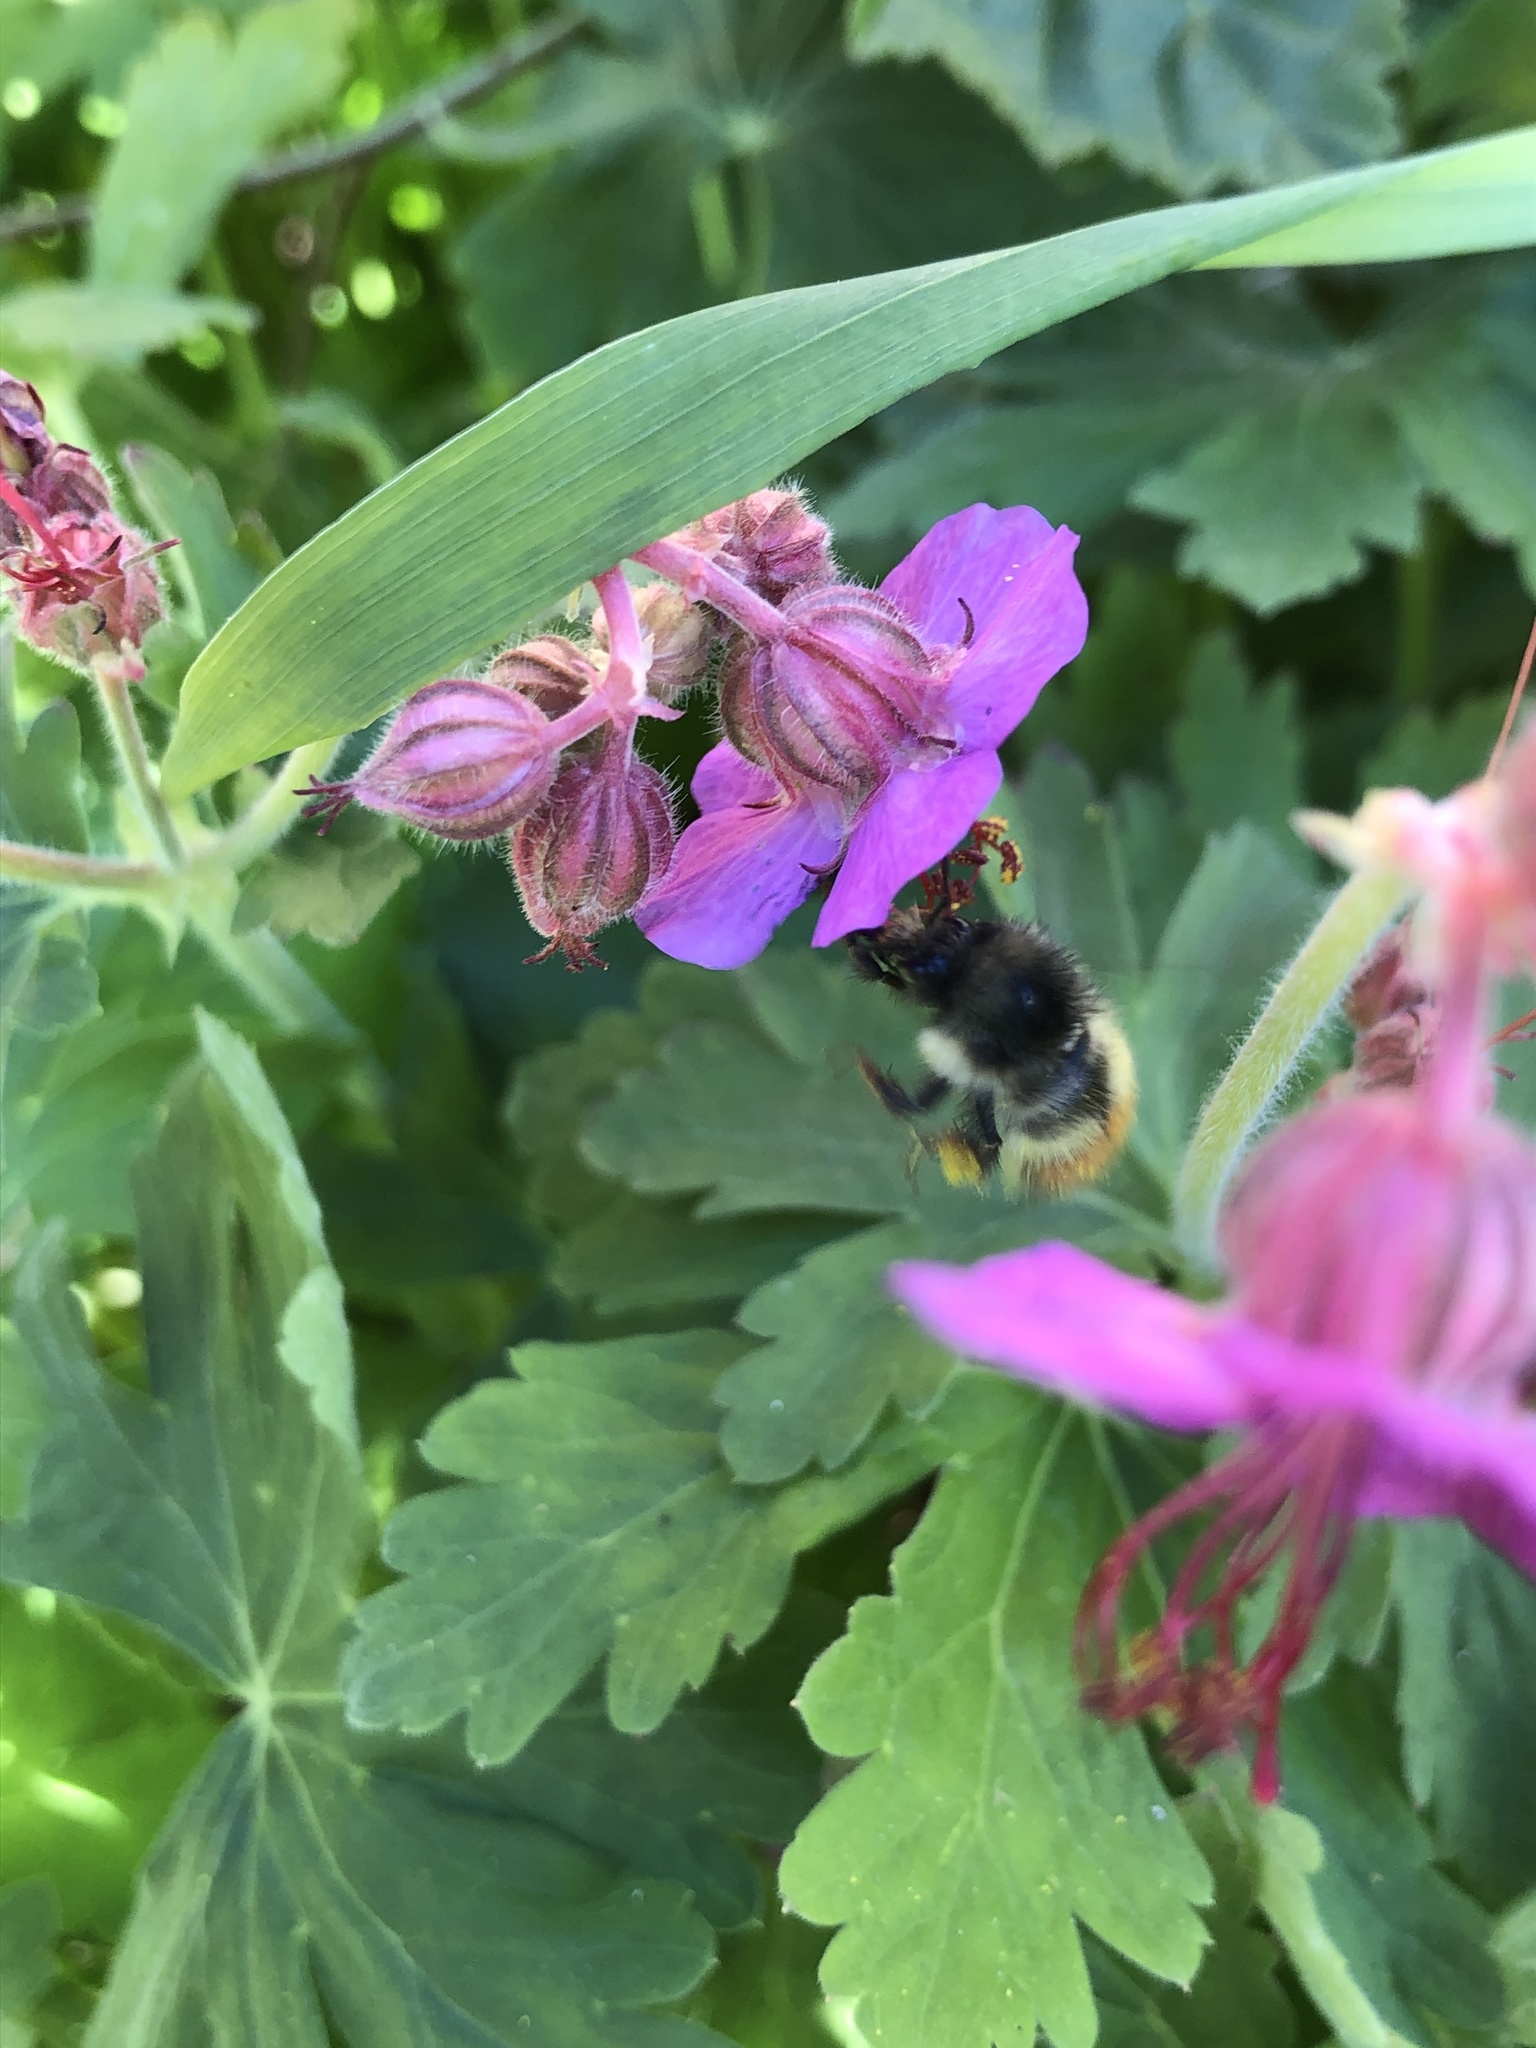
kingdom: Animalia
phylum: Arthropoda
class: Insecta
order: Hymenoptera
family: Apidae
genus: Bombus
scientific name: Bombus flavifrons
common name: Yellow head bumble bee
